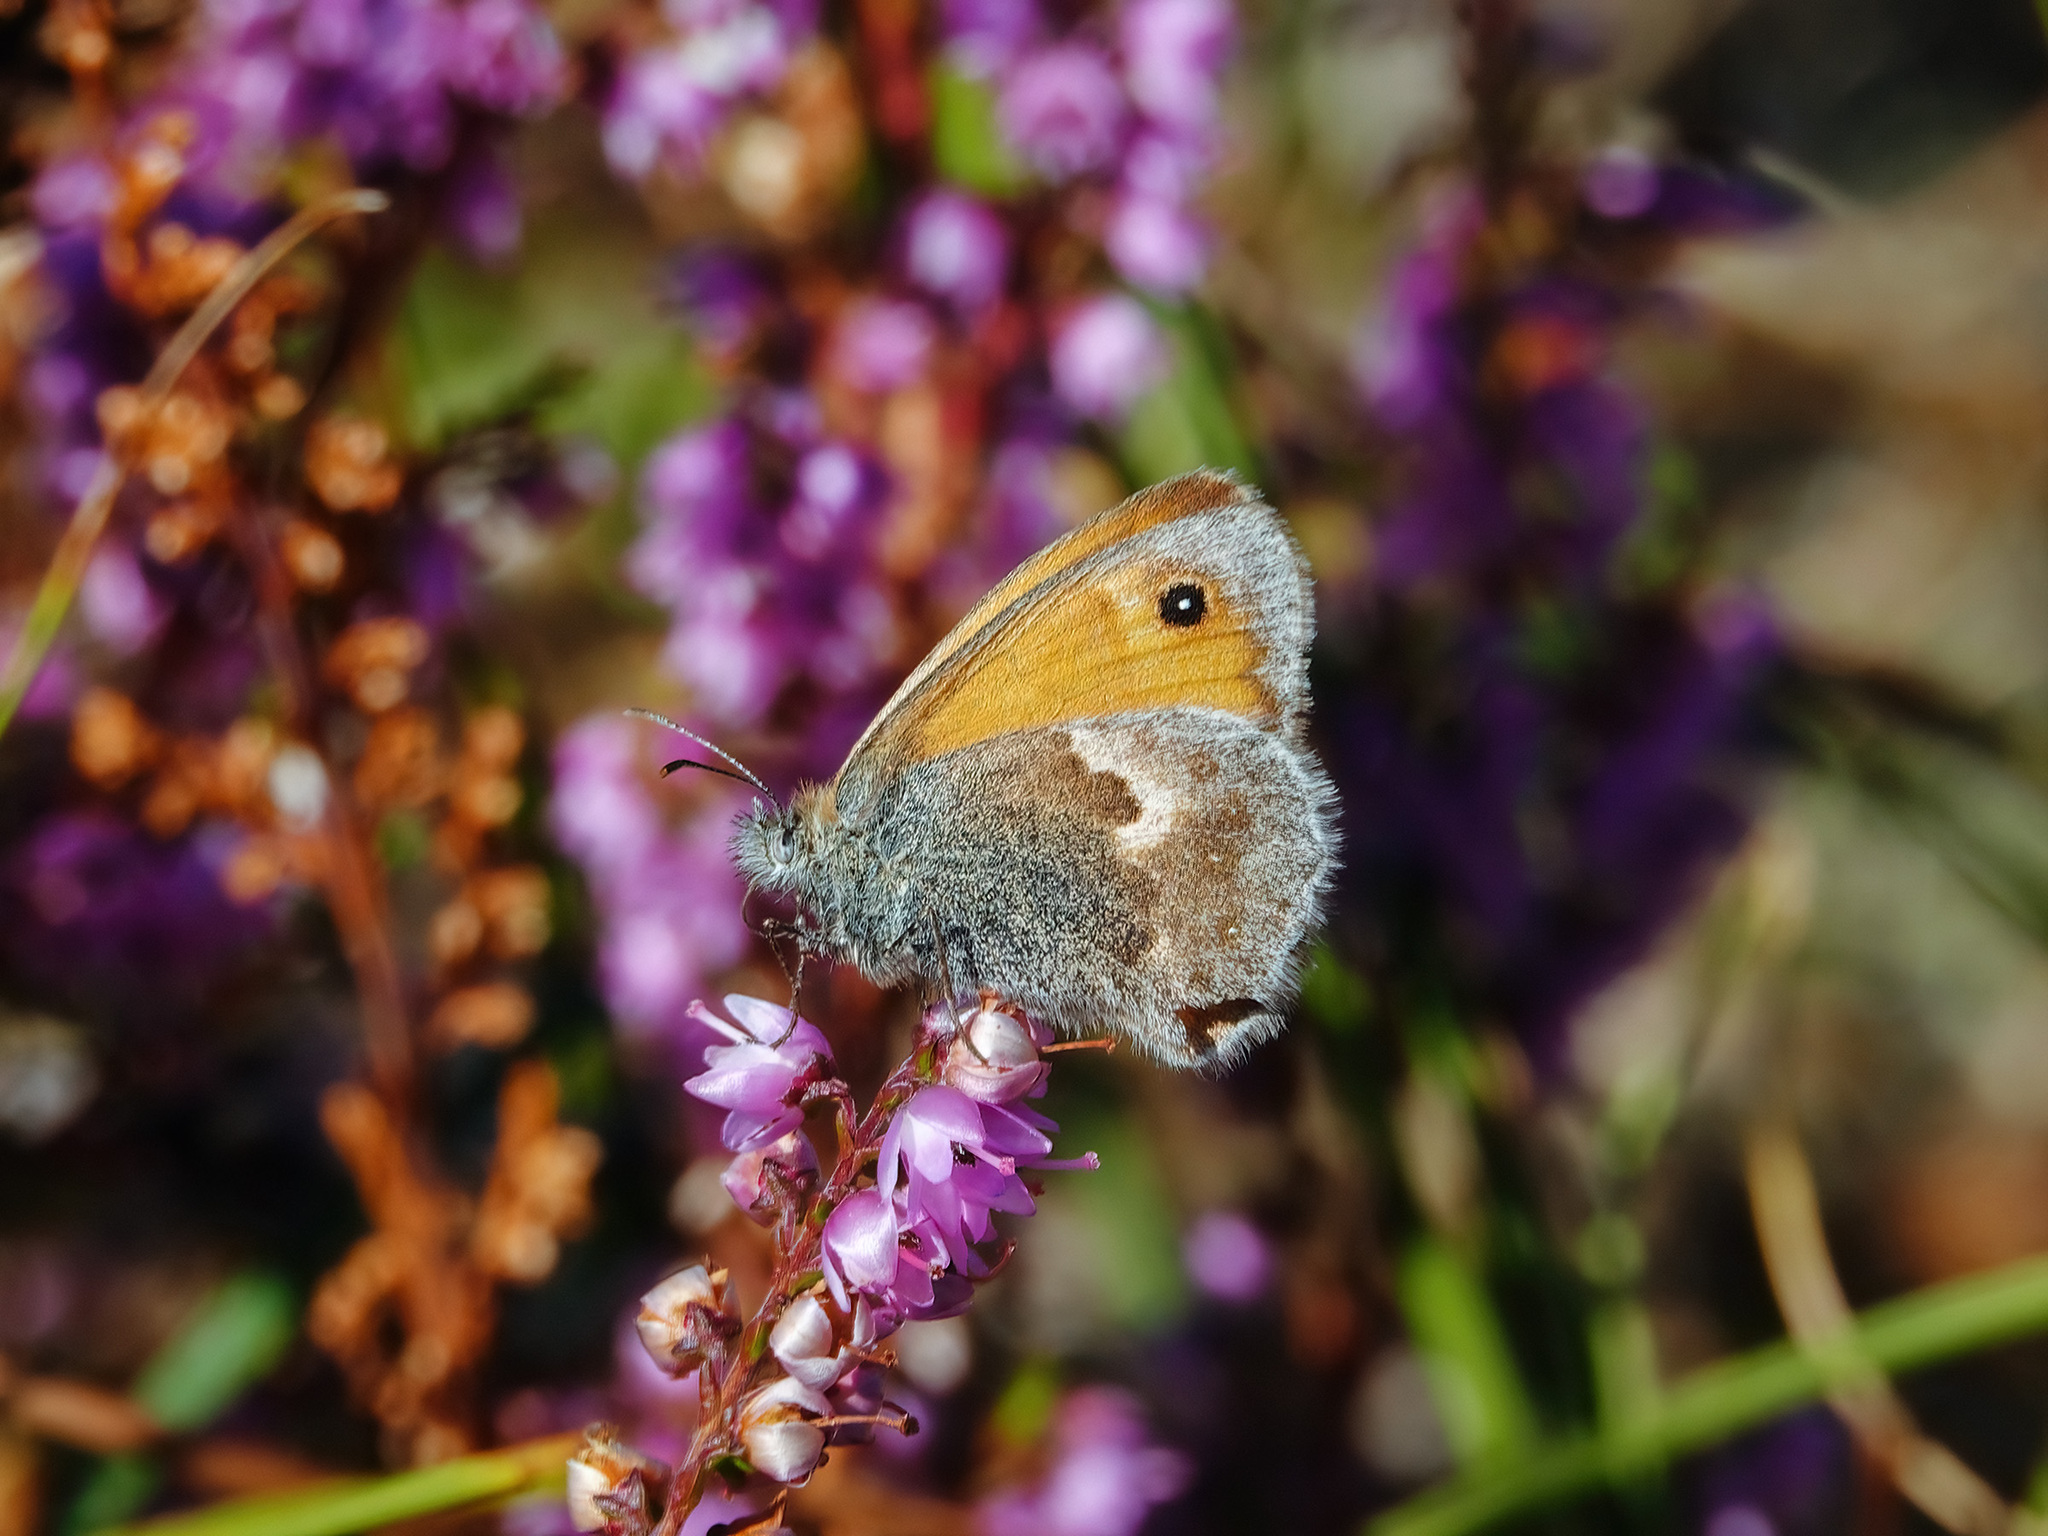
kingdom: Animalia
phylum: Arthropoda
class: Insecta
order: Lepidoptera
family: Nymphalidae
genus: Coenonympha
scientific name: Coenonympha pamphilus
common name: Small heath
